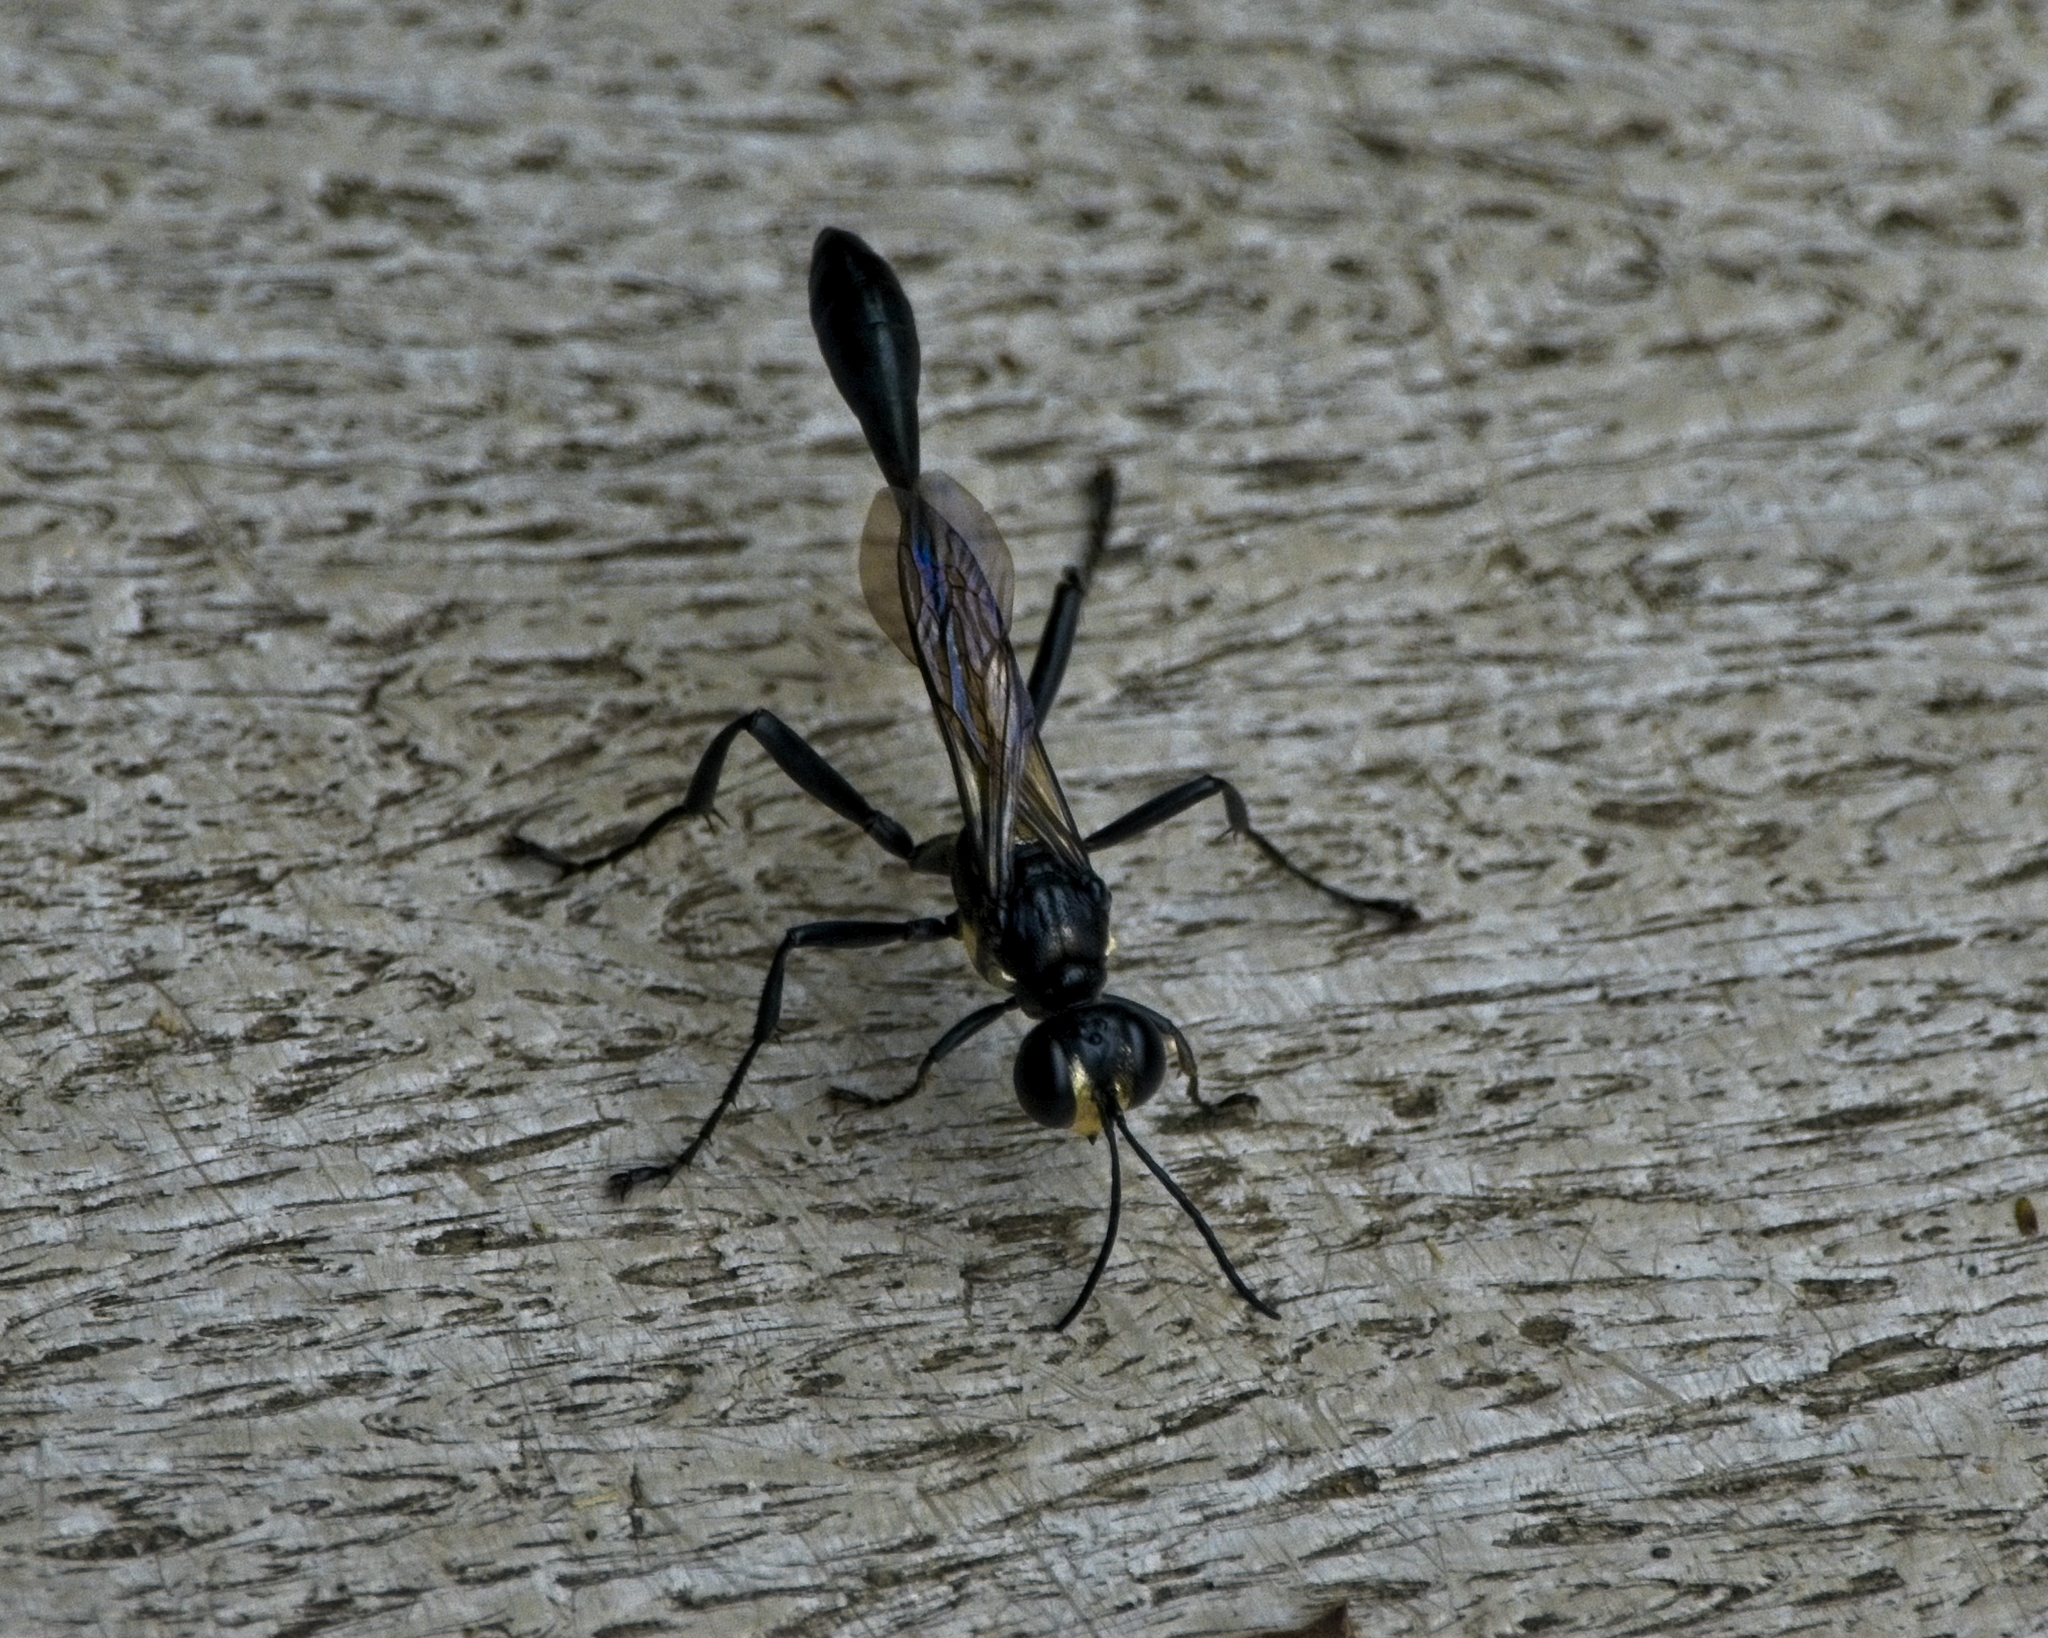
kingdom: Animalia
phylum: Arthropoda
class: Insecta
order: Hymenoptera
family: Sphecidae
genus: Eremnophila
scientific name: Eremnophila aureonotata
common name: Gold-marked thread-waisted wasp
